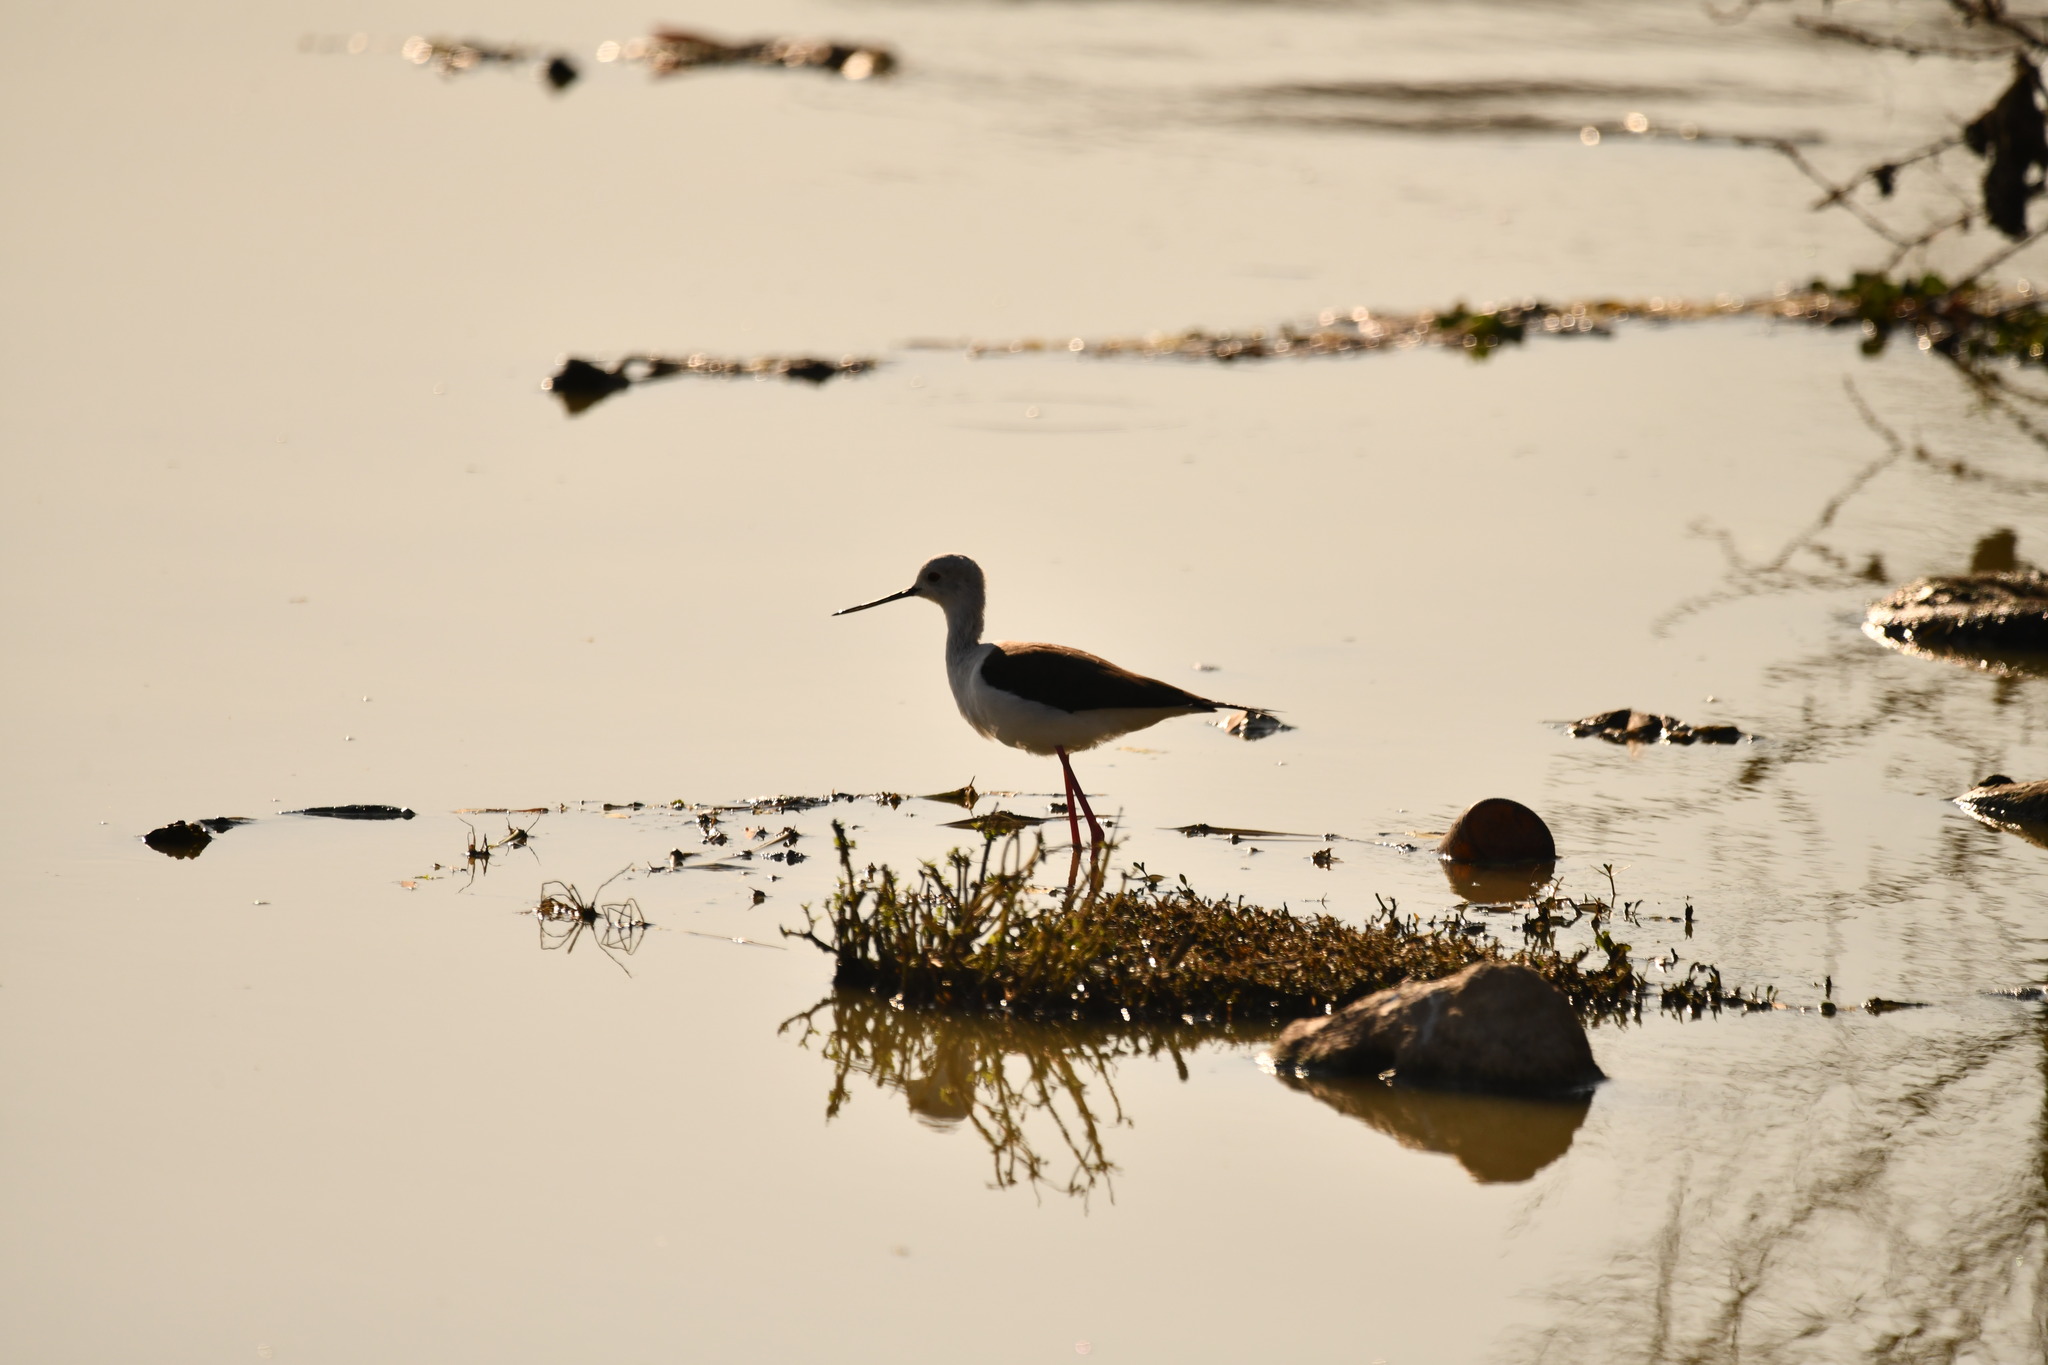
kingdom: Animalia
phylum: Chordata
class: Aves
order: Charadriiformes
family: Recurvirostridae
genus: Himantopus
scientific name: Himantopus himantopus
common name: Black-winged stilt
